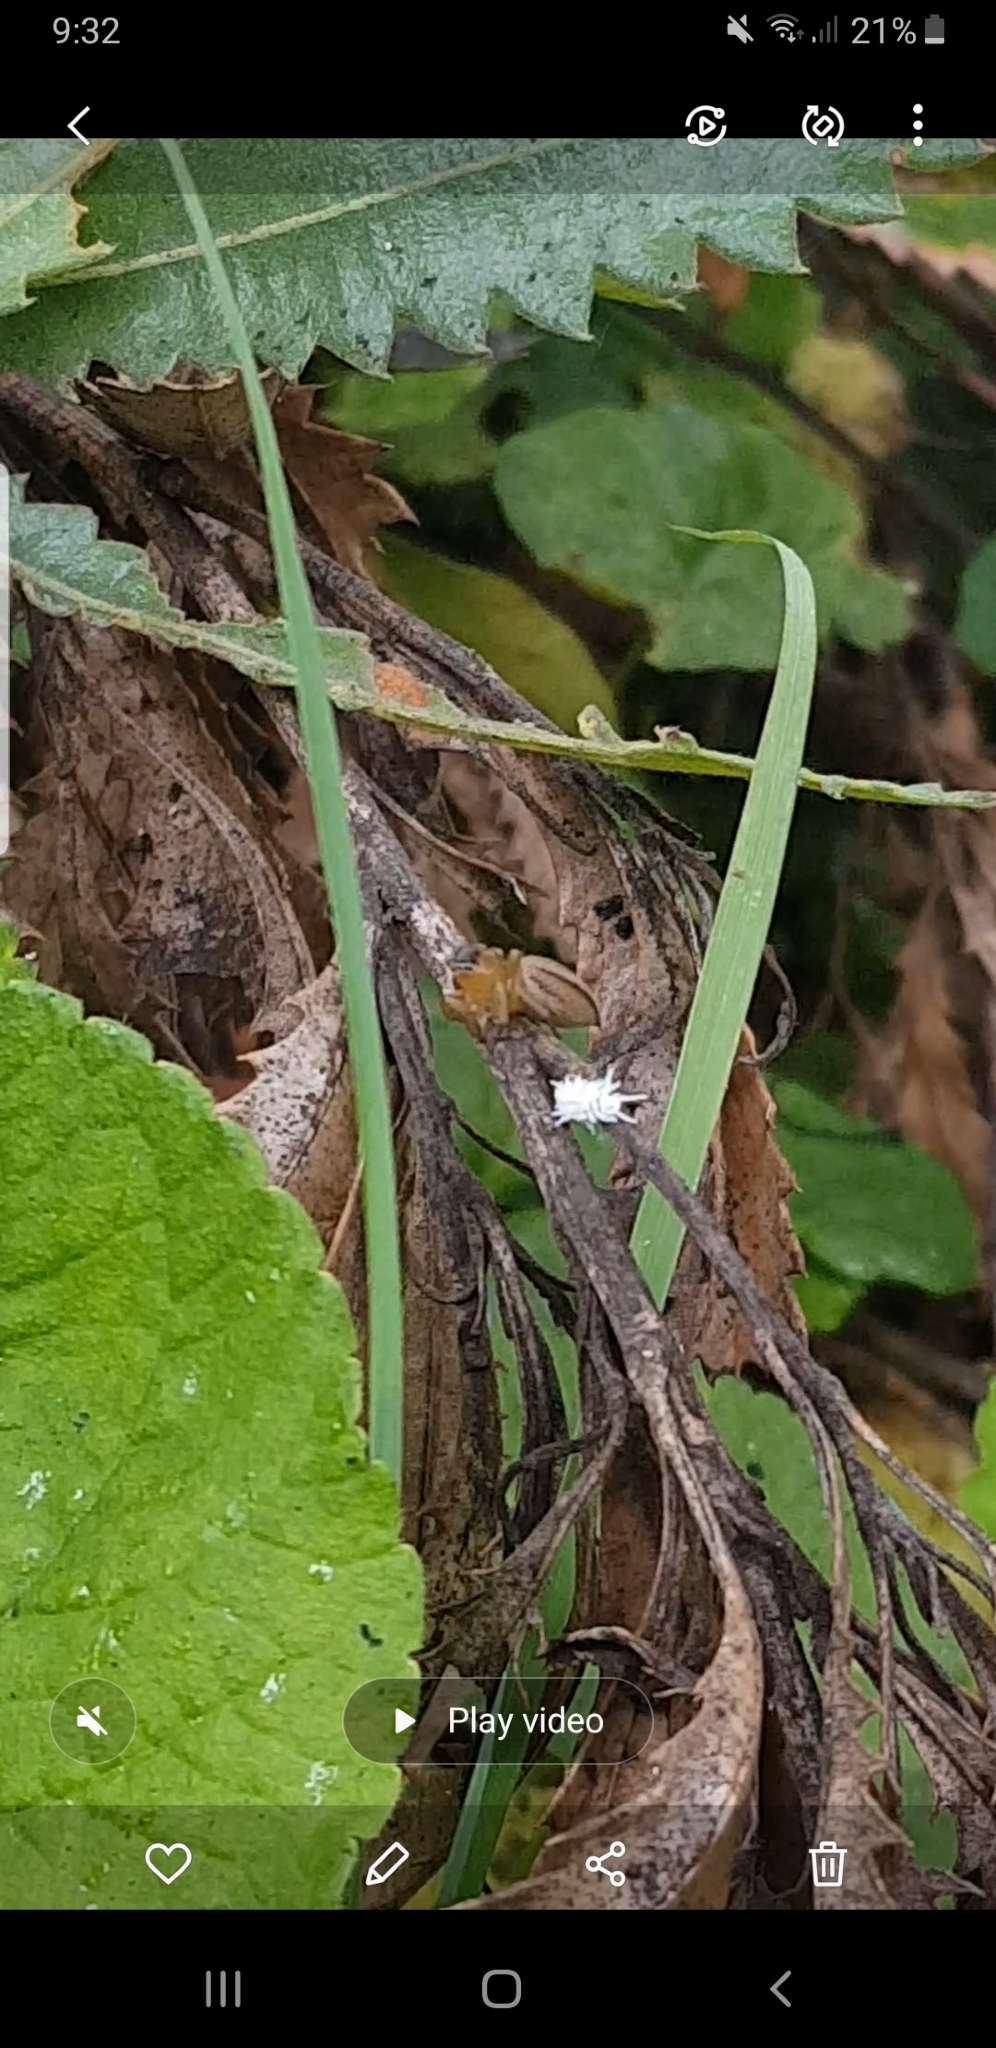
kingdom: Animalia
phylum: Arthropoda
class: Insecta
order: Coleoptera
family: Coccinellidae
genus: Cryptolaemus
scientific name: Cryptolaemus montrouzieri
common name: Mealybug destroyer
